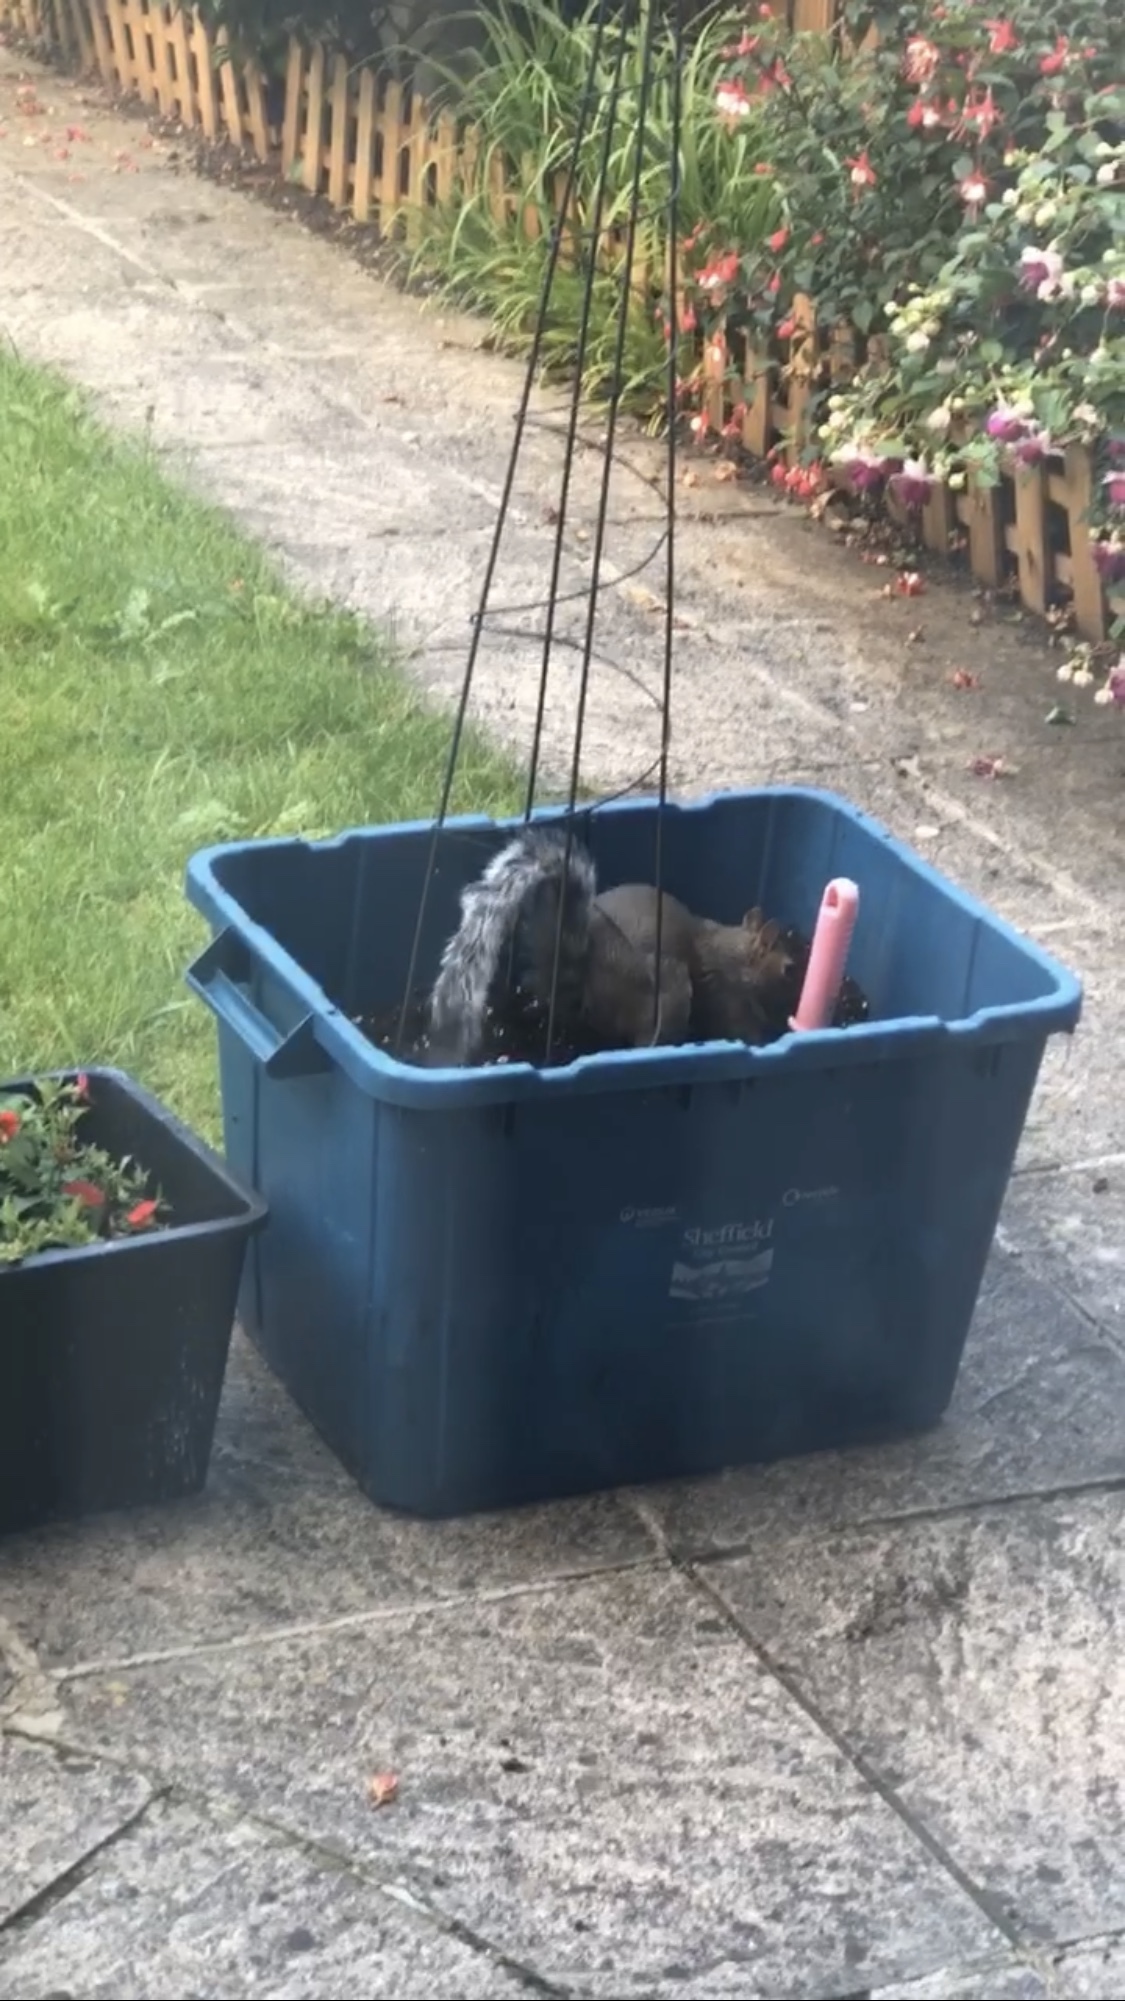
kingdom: Animalia
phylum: Chordata
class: Mammalia
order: Rodentia
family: Sciuridae
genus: Sciurus
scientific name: Sciurus carolinensis
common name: Eastern gray squirrel
